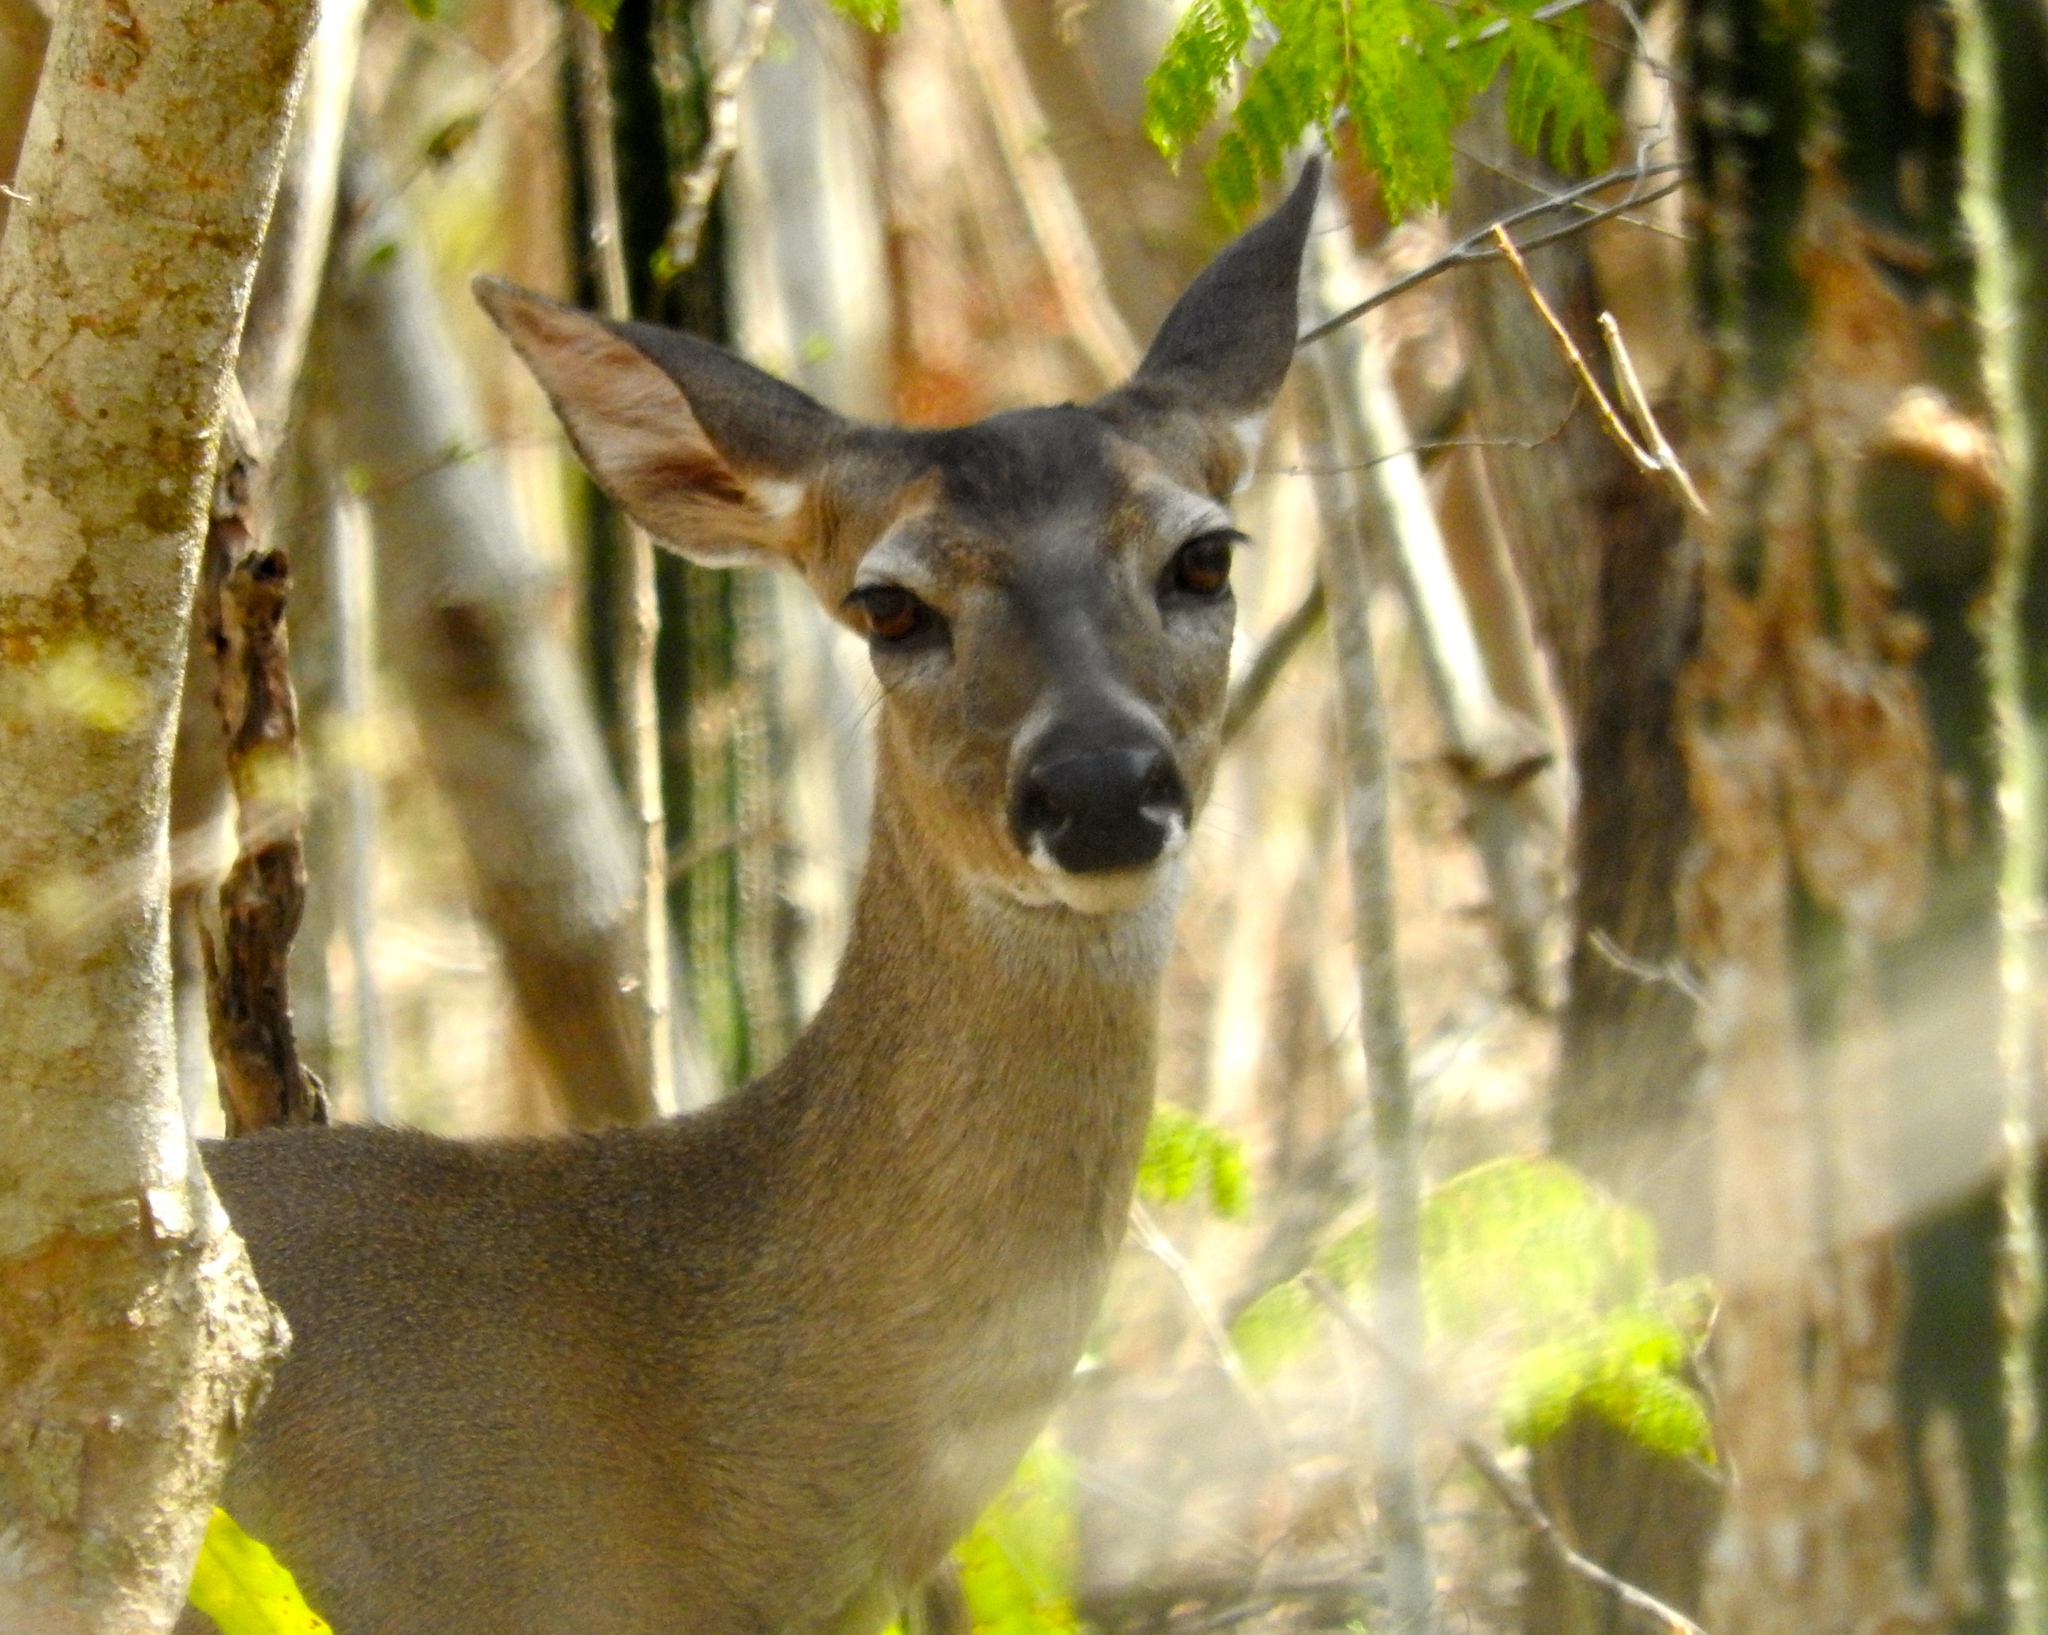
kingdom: Animalia
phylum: Chordata
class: Mammalia
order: Artiodactyla
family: Cervidae
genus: Odocoileus
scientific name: Odocoileus virginianus
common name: White-tailed deer
